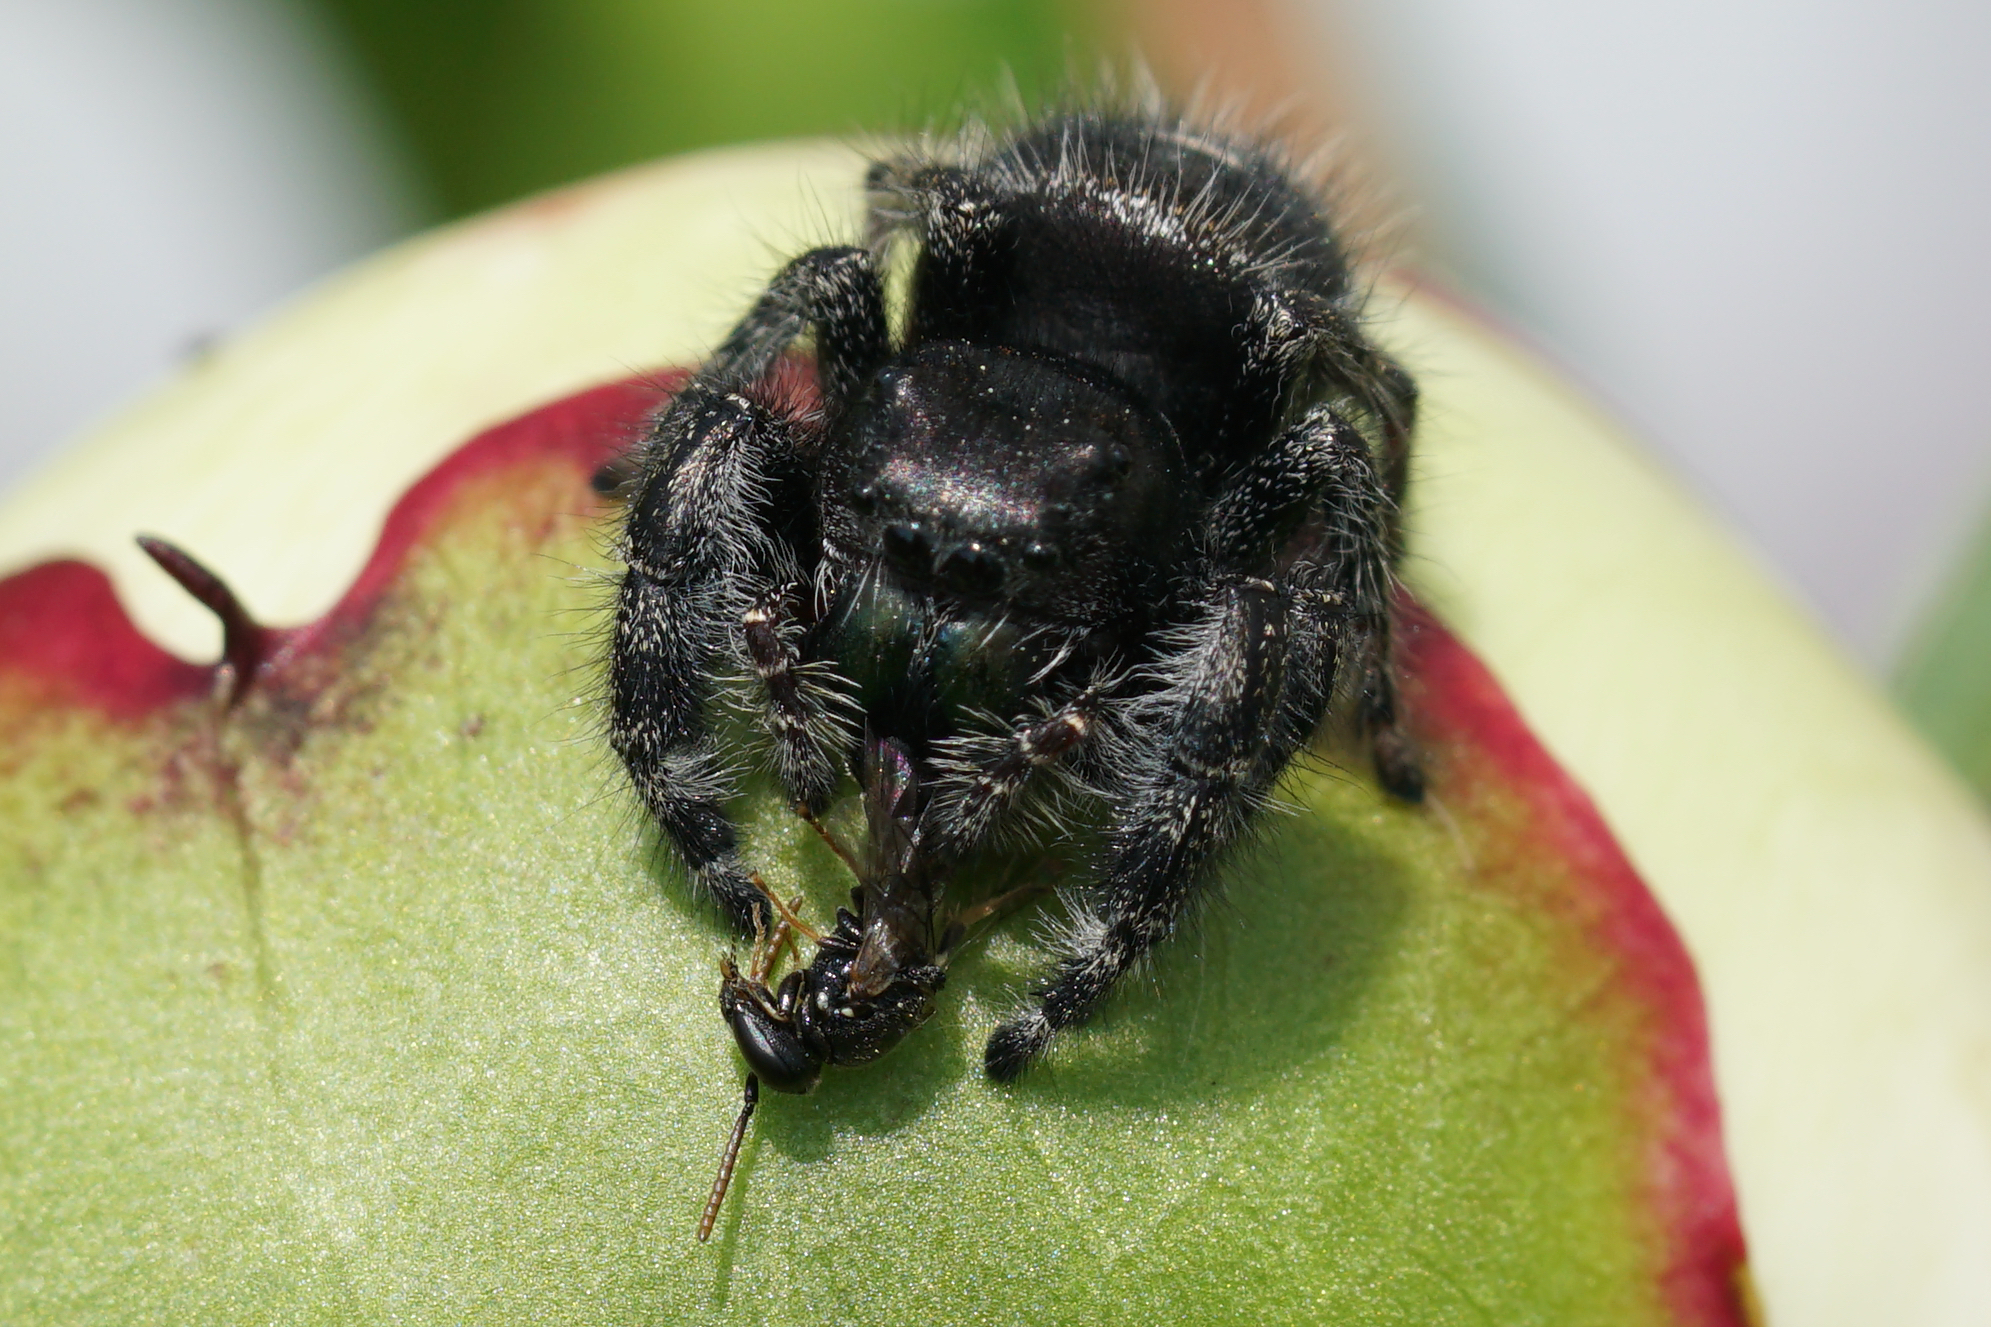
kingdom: Animalia
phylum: Arthropoda
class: Arachnida
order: Araneae
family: Salticidae
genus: Phidippus
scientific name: Phidippus audax
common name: Bold jumper
